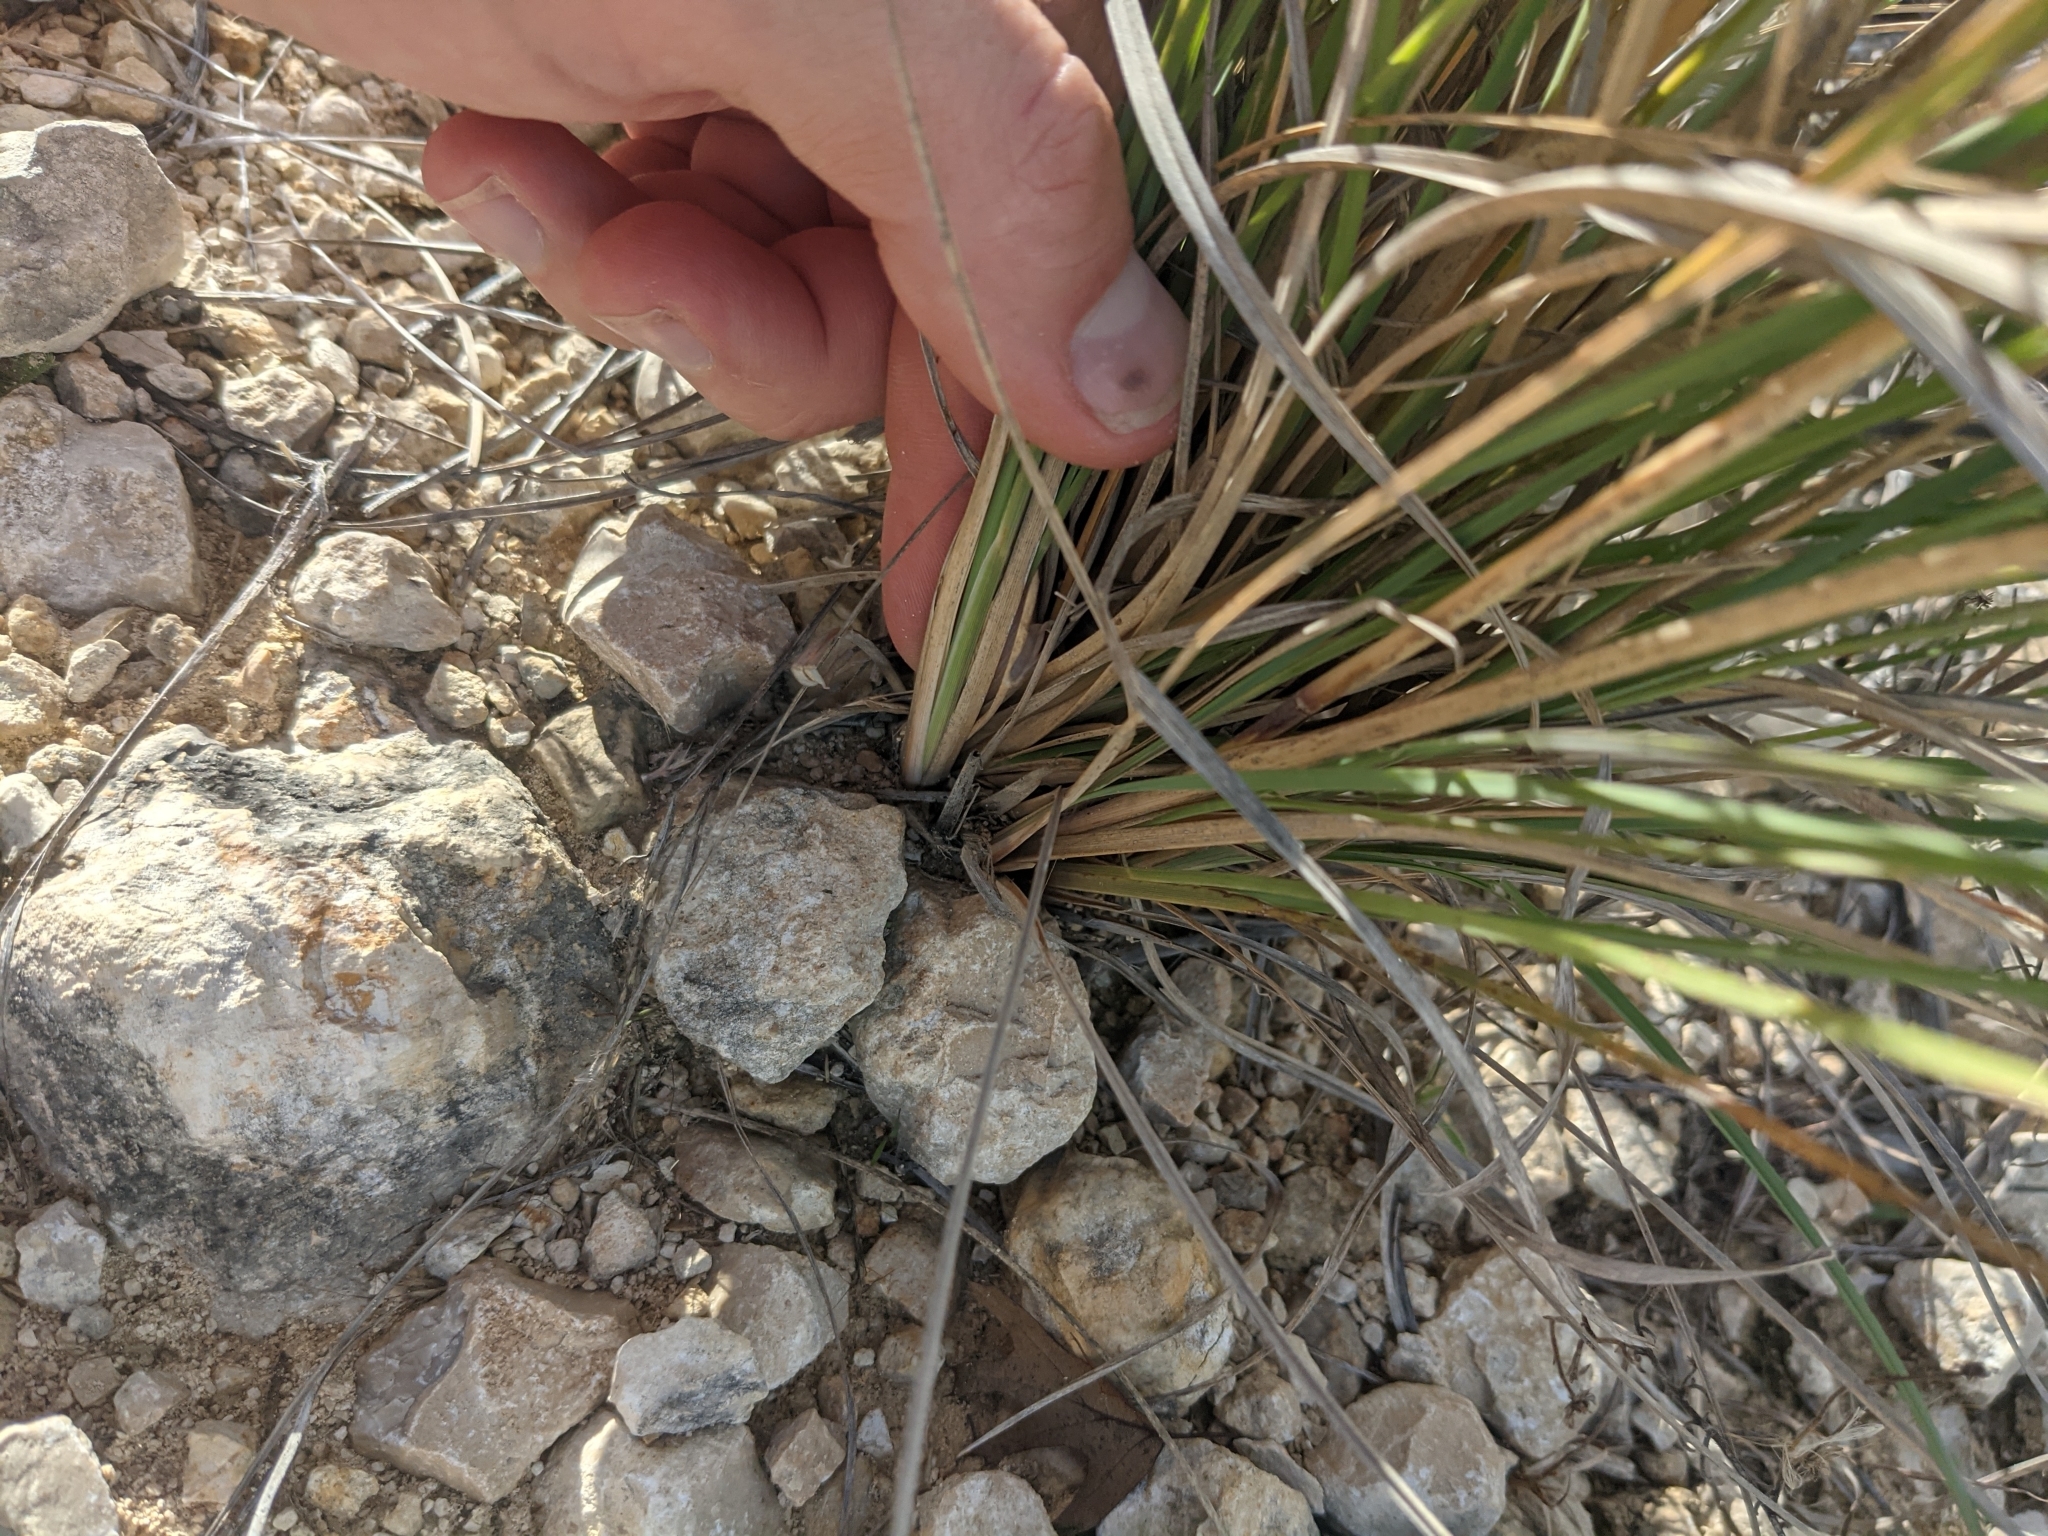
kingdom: Plantae
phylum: Tracheophyta
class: Liliopsida
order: Poales
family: Poaceae
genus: Muhlenbergia
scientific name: Muhlenbergia lindheimeri
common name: Lindheimer's muhly
